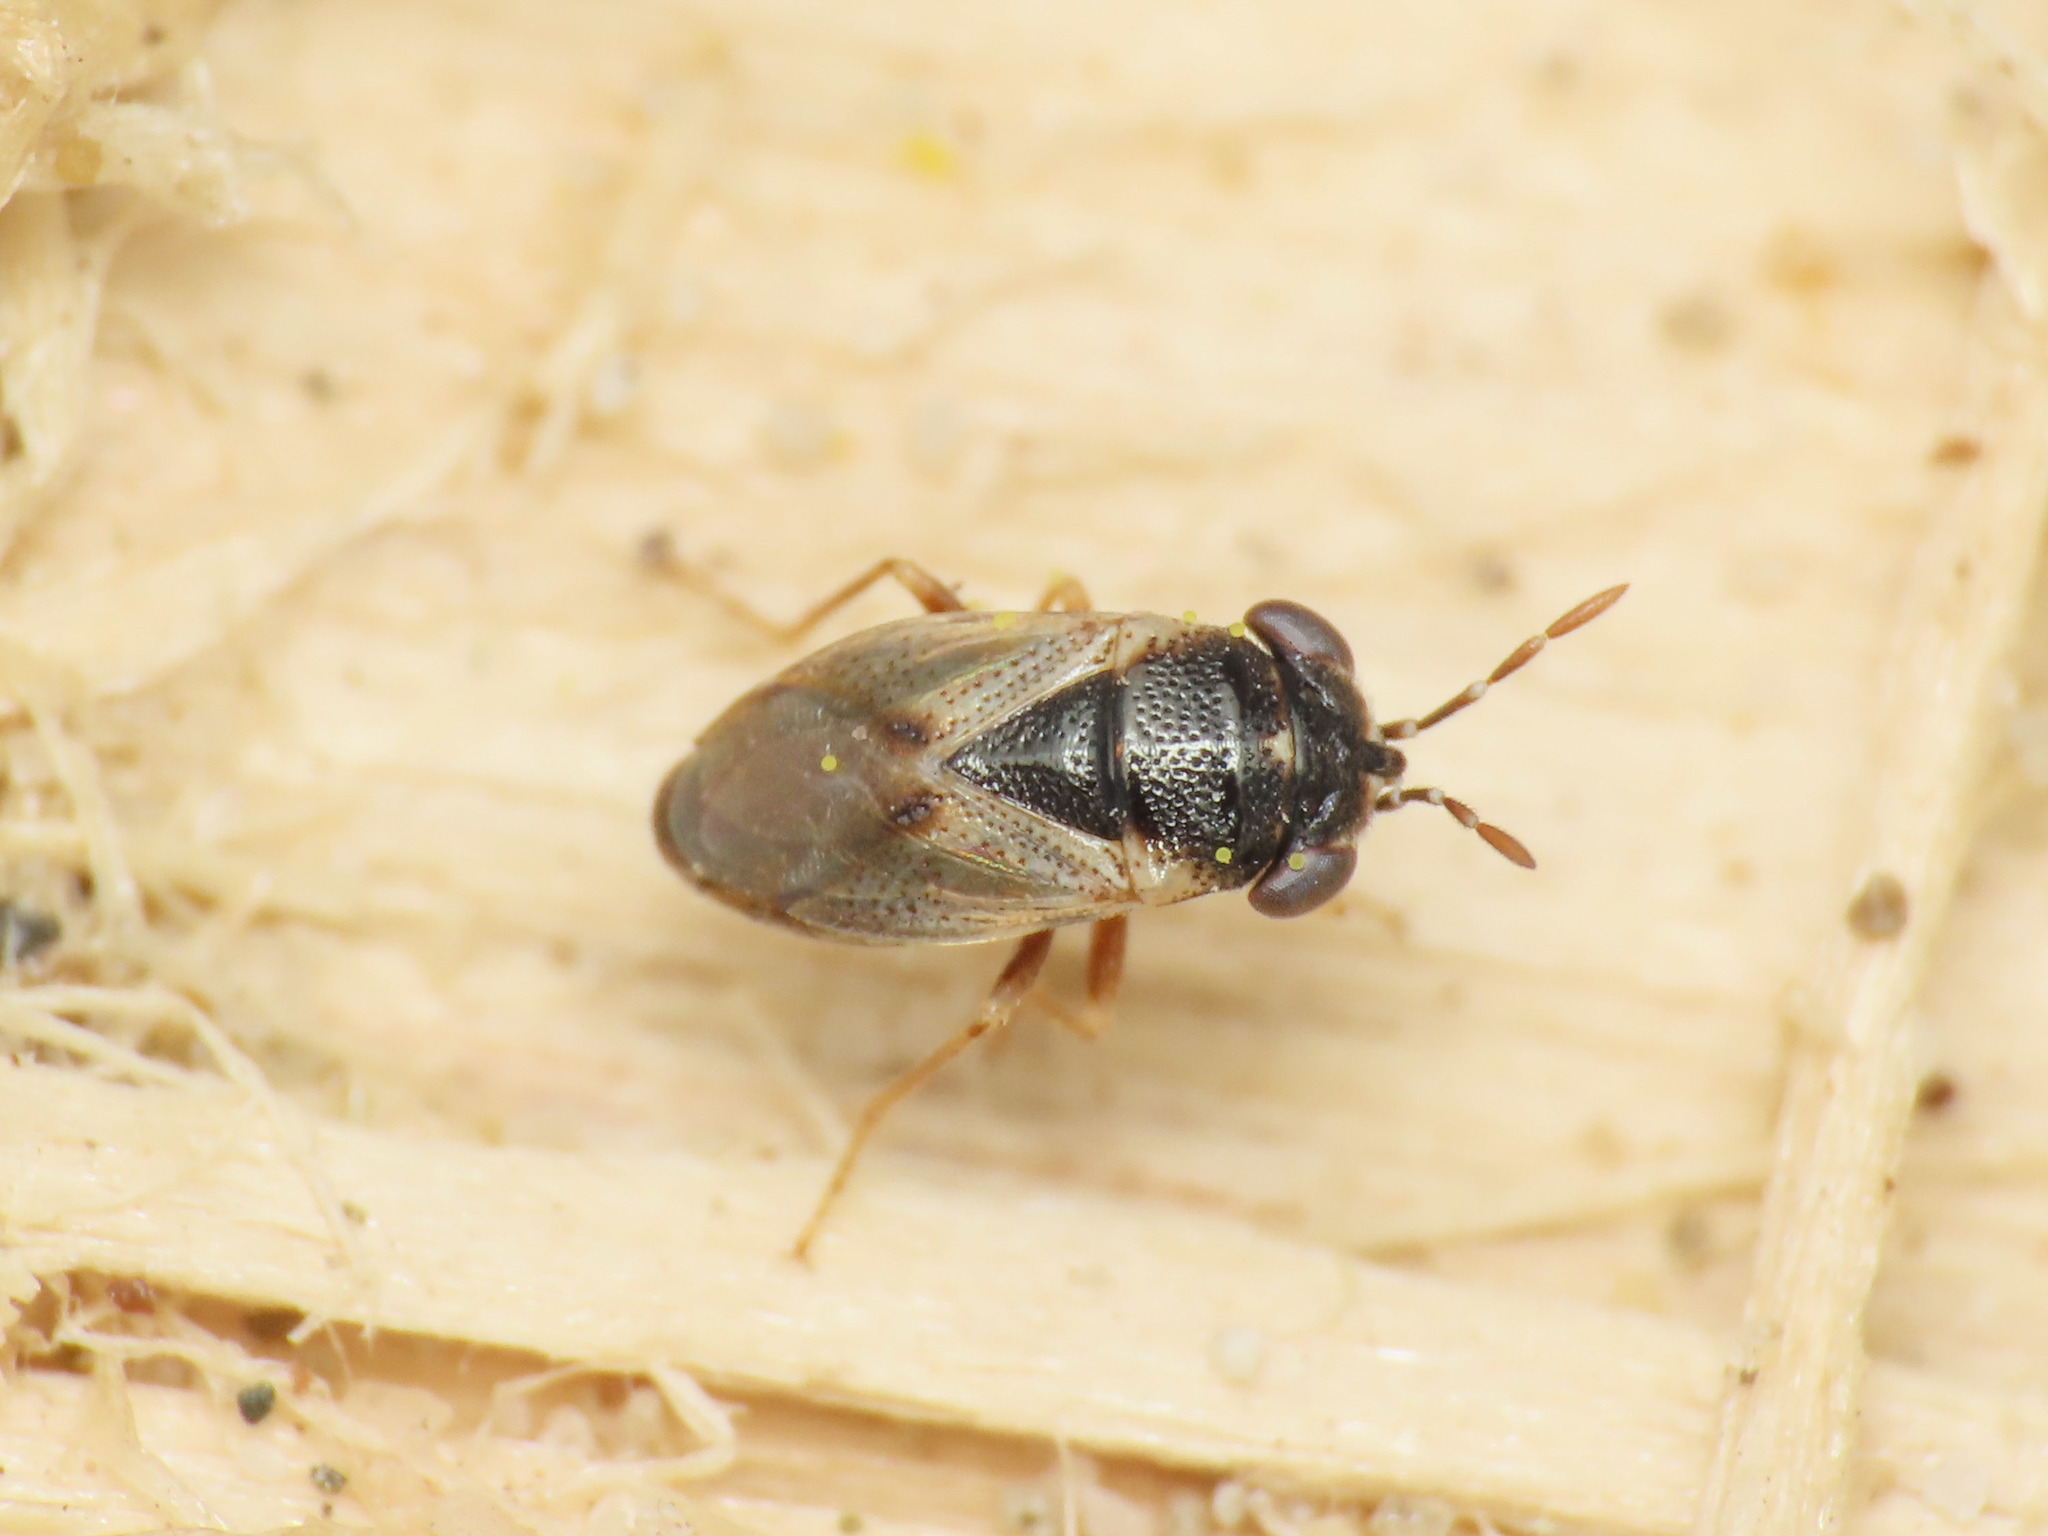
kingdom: Animalia
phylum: Arthropoda
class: Insecta
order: Hemiptera
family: Geocoridae
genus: Geocoris
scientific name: Geocoris megacephalus
